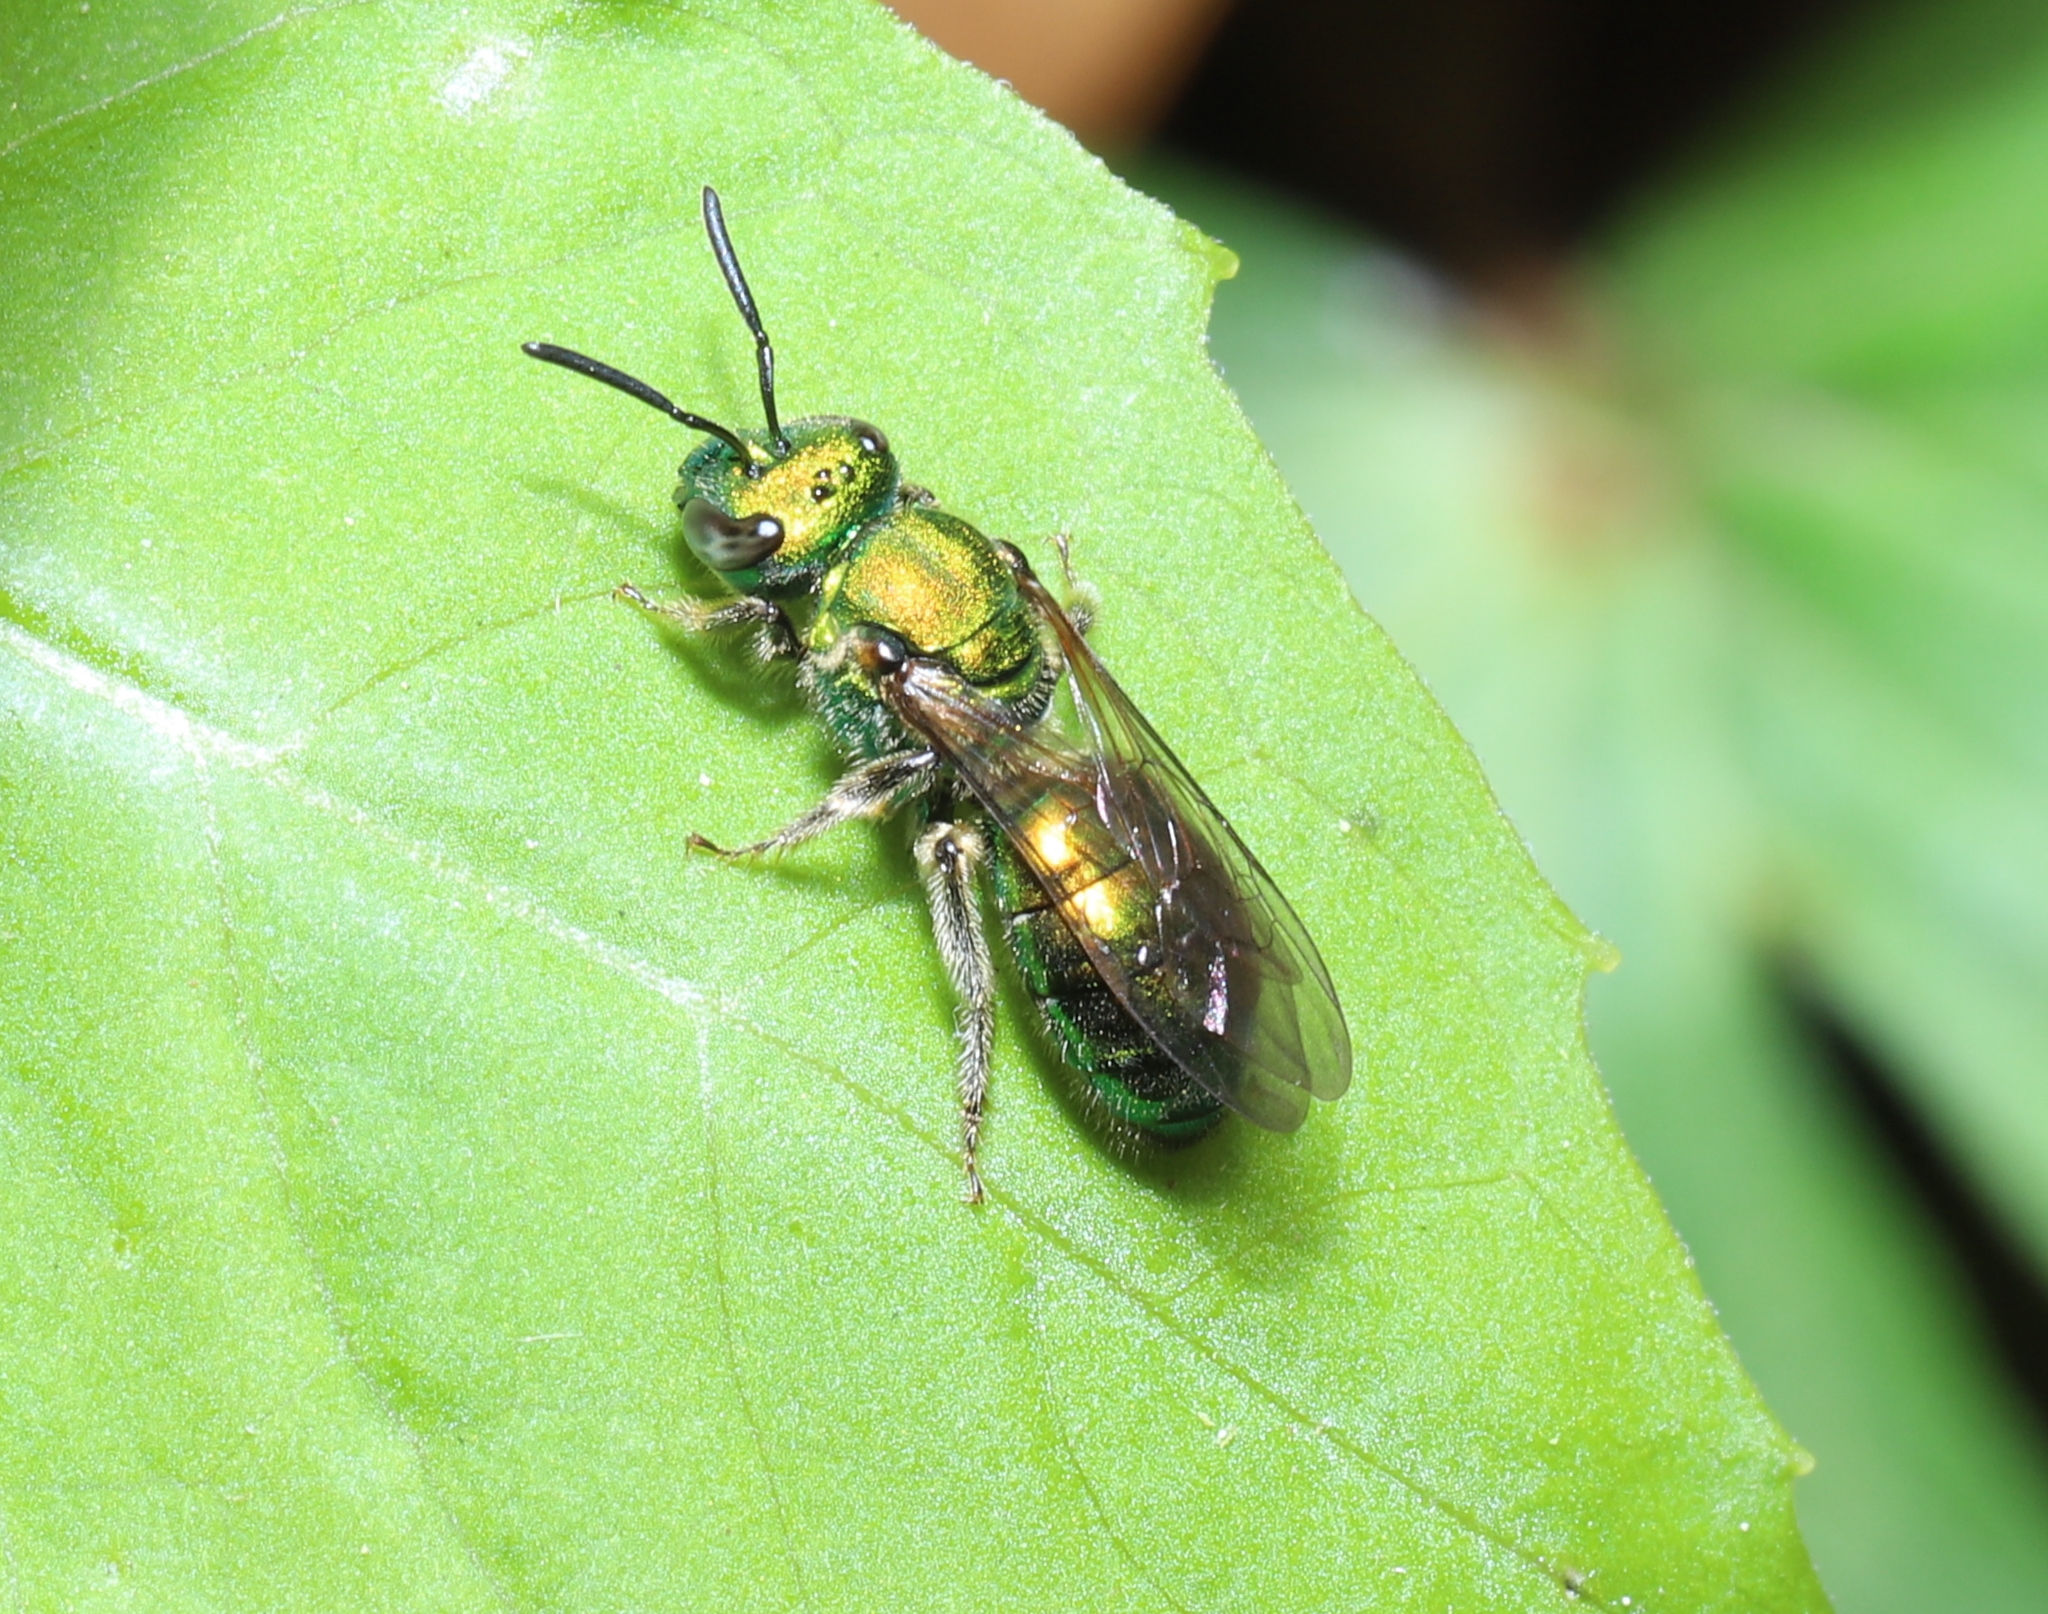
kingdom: Animalia
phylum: Arthropoda
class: Insecta
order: Hymenoptera
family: Halictidae
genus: Augochlora
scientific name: Augochlora pura
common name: Pure green sweat bee
